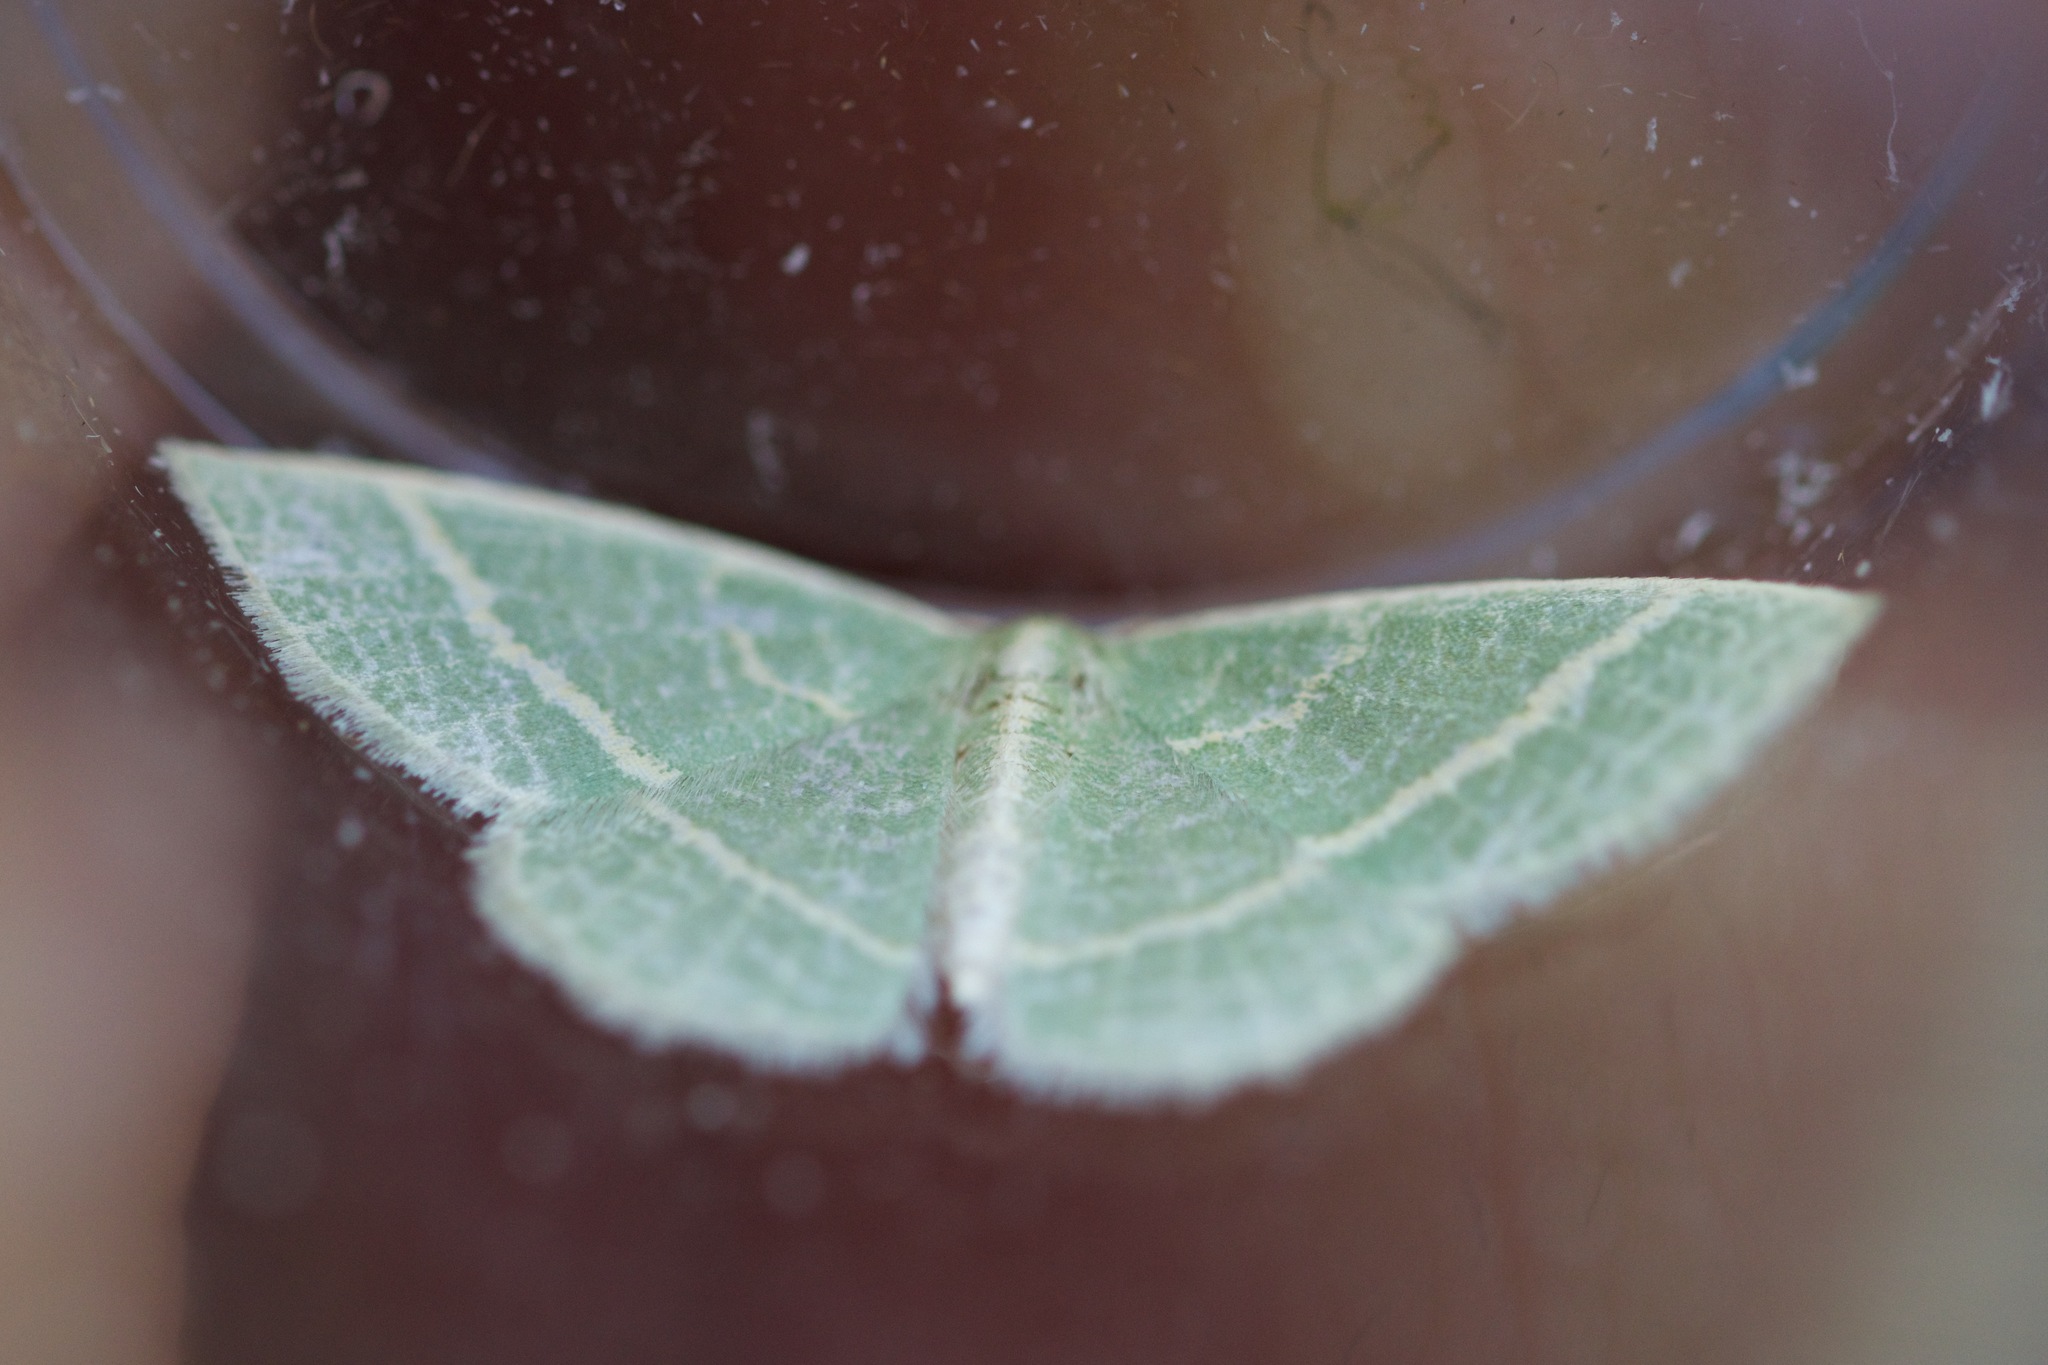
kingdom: Animalia
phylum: Arthropoda
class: Insecta
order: Lepidoptera
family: Geometridae
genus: Chlorochlamys
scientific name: Chlorochlamys chloroleucaria
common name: Blackberry looper
